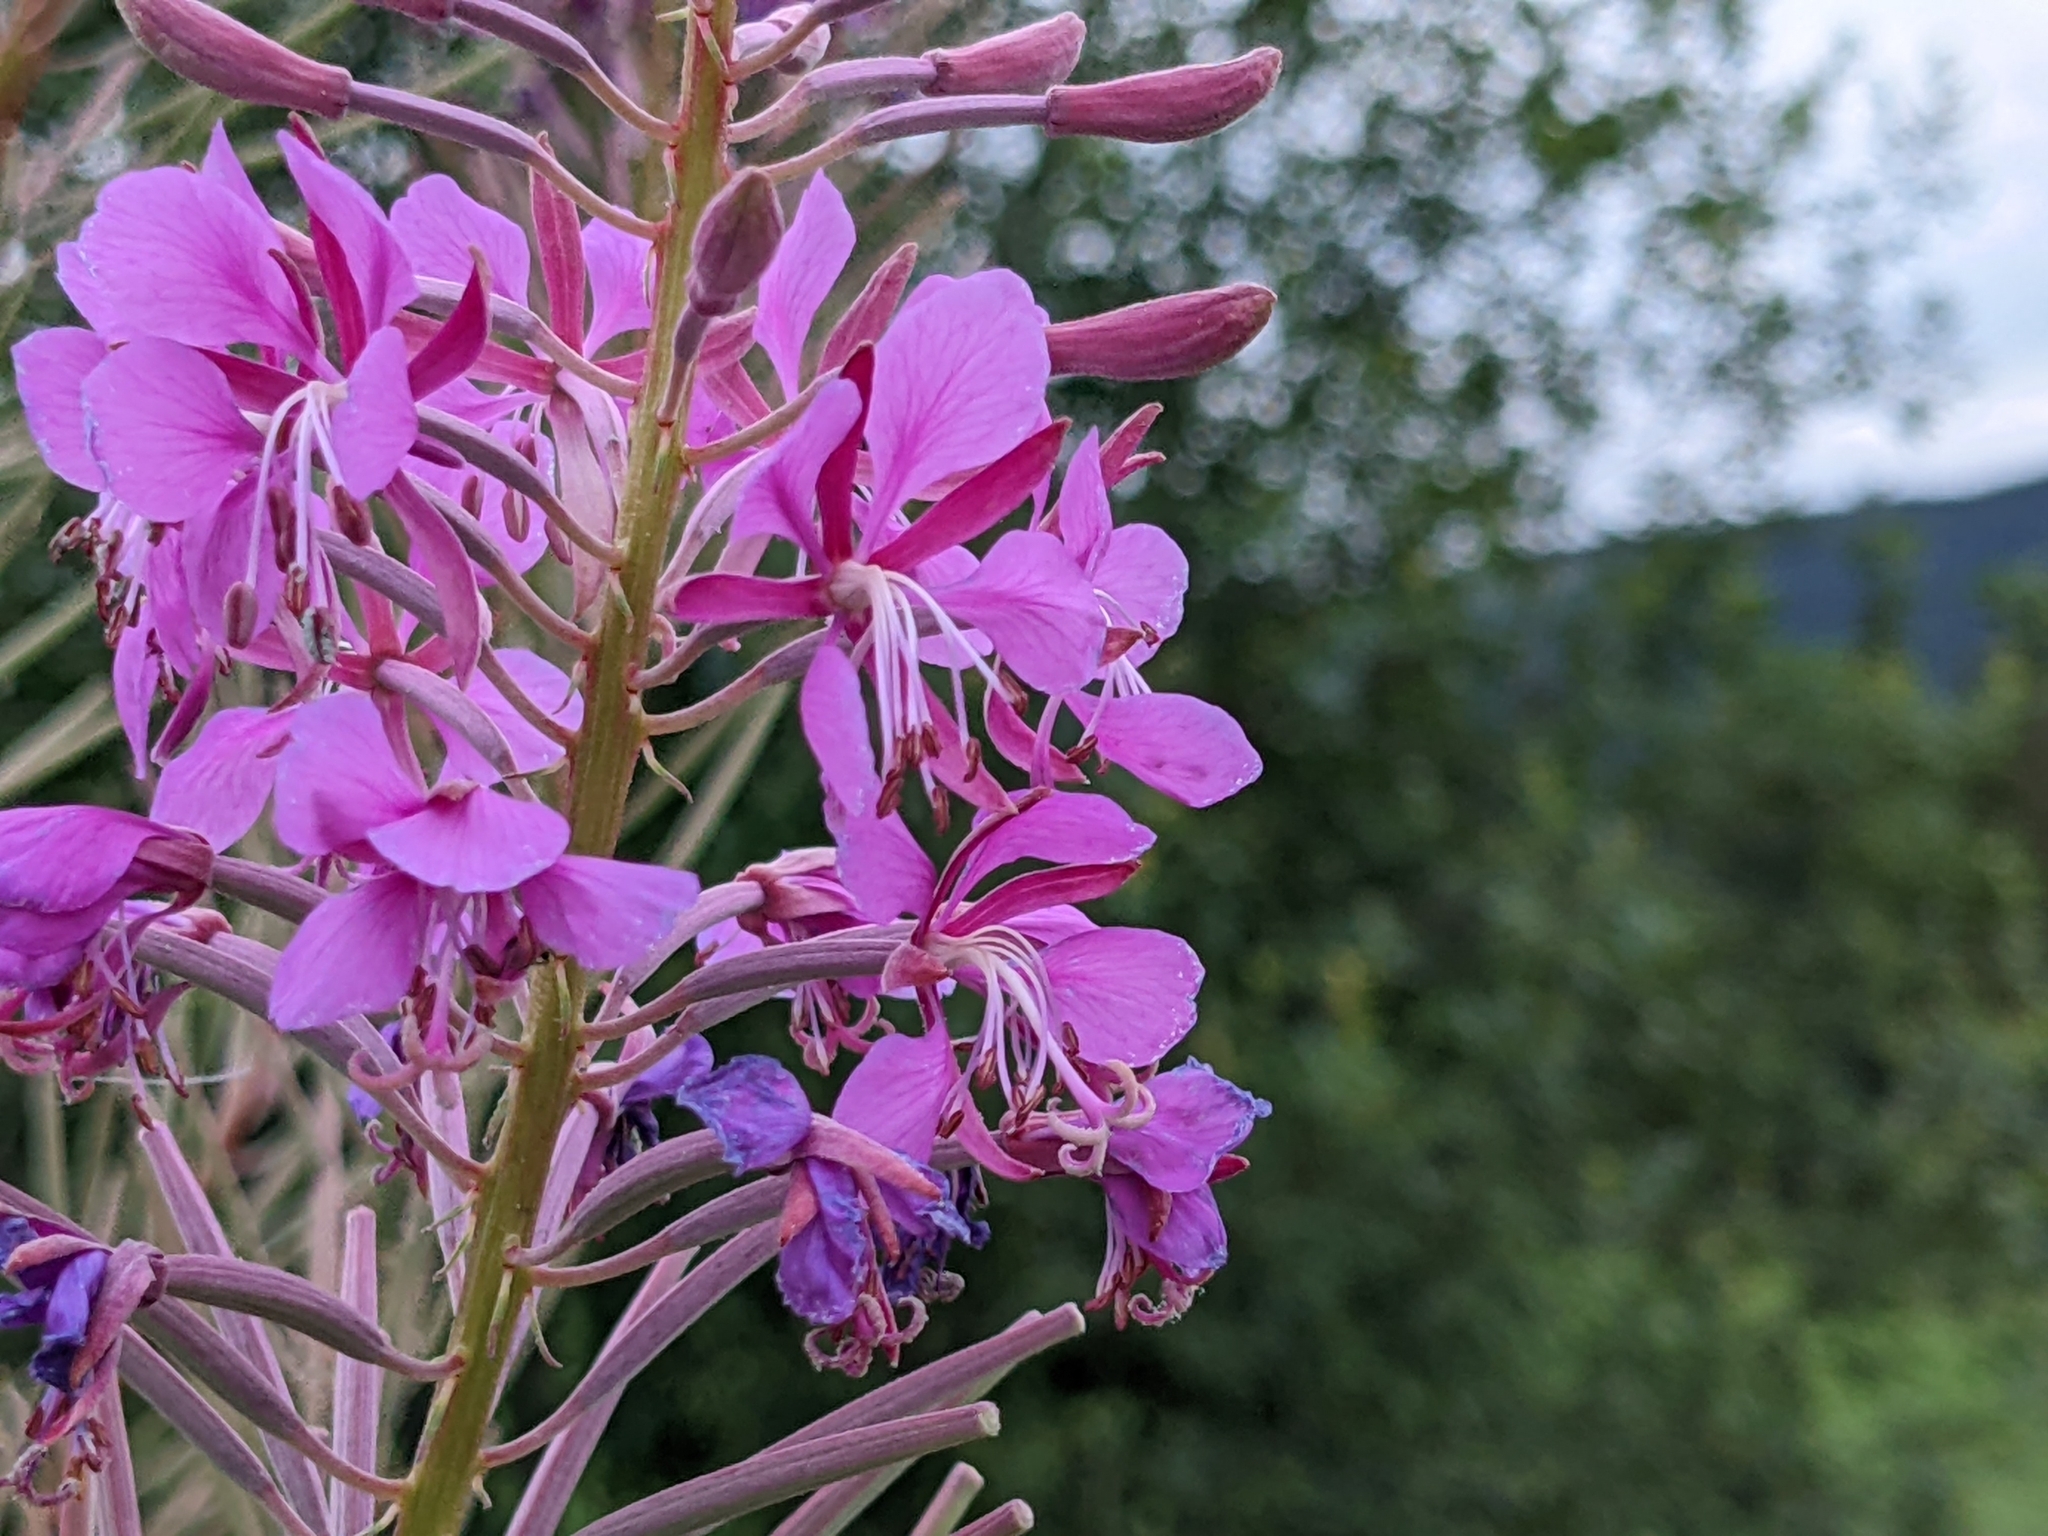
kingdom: Plantae
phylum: Tracheophyta
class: Magnoliopsida
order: Myrtales
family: Onagraceae
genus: Chamaenerion
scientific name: Chamaenerion angustifolium
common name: Fireweed
